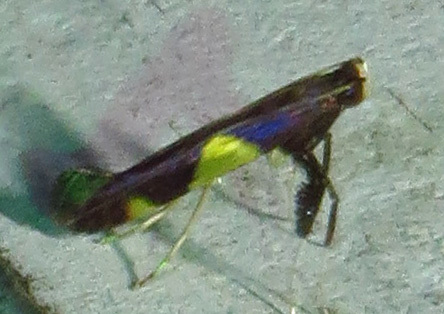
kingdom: Animalia
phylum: Arthropoda
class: Insecta
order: Lepidoptera
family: Gracillariidae
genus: Caloptilia
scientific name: Caloptilia bimaculatella
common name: Maple caloptilia moth
